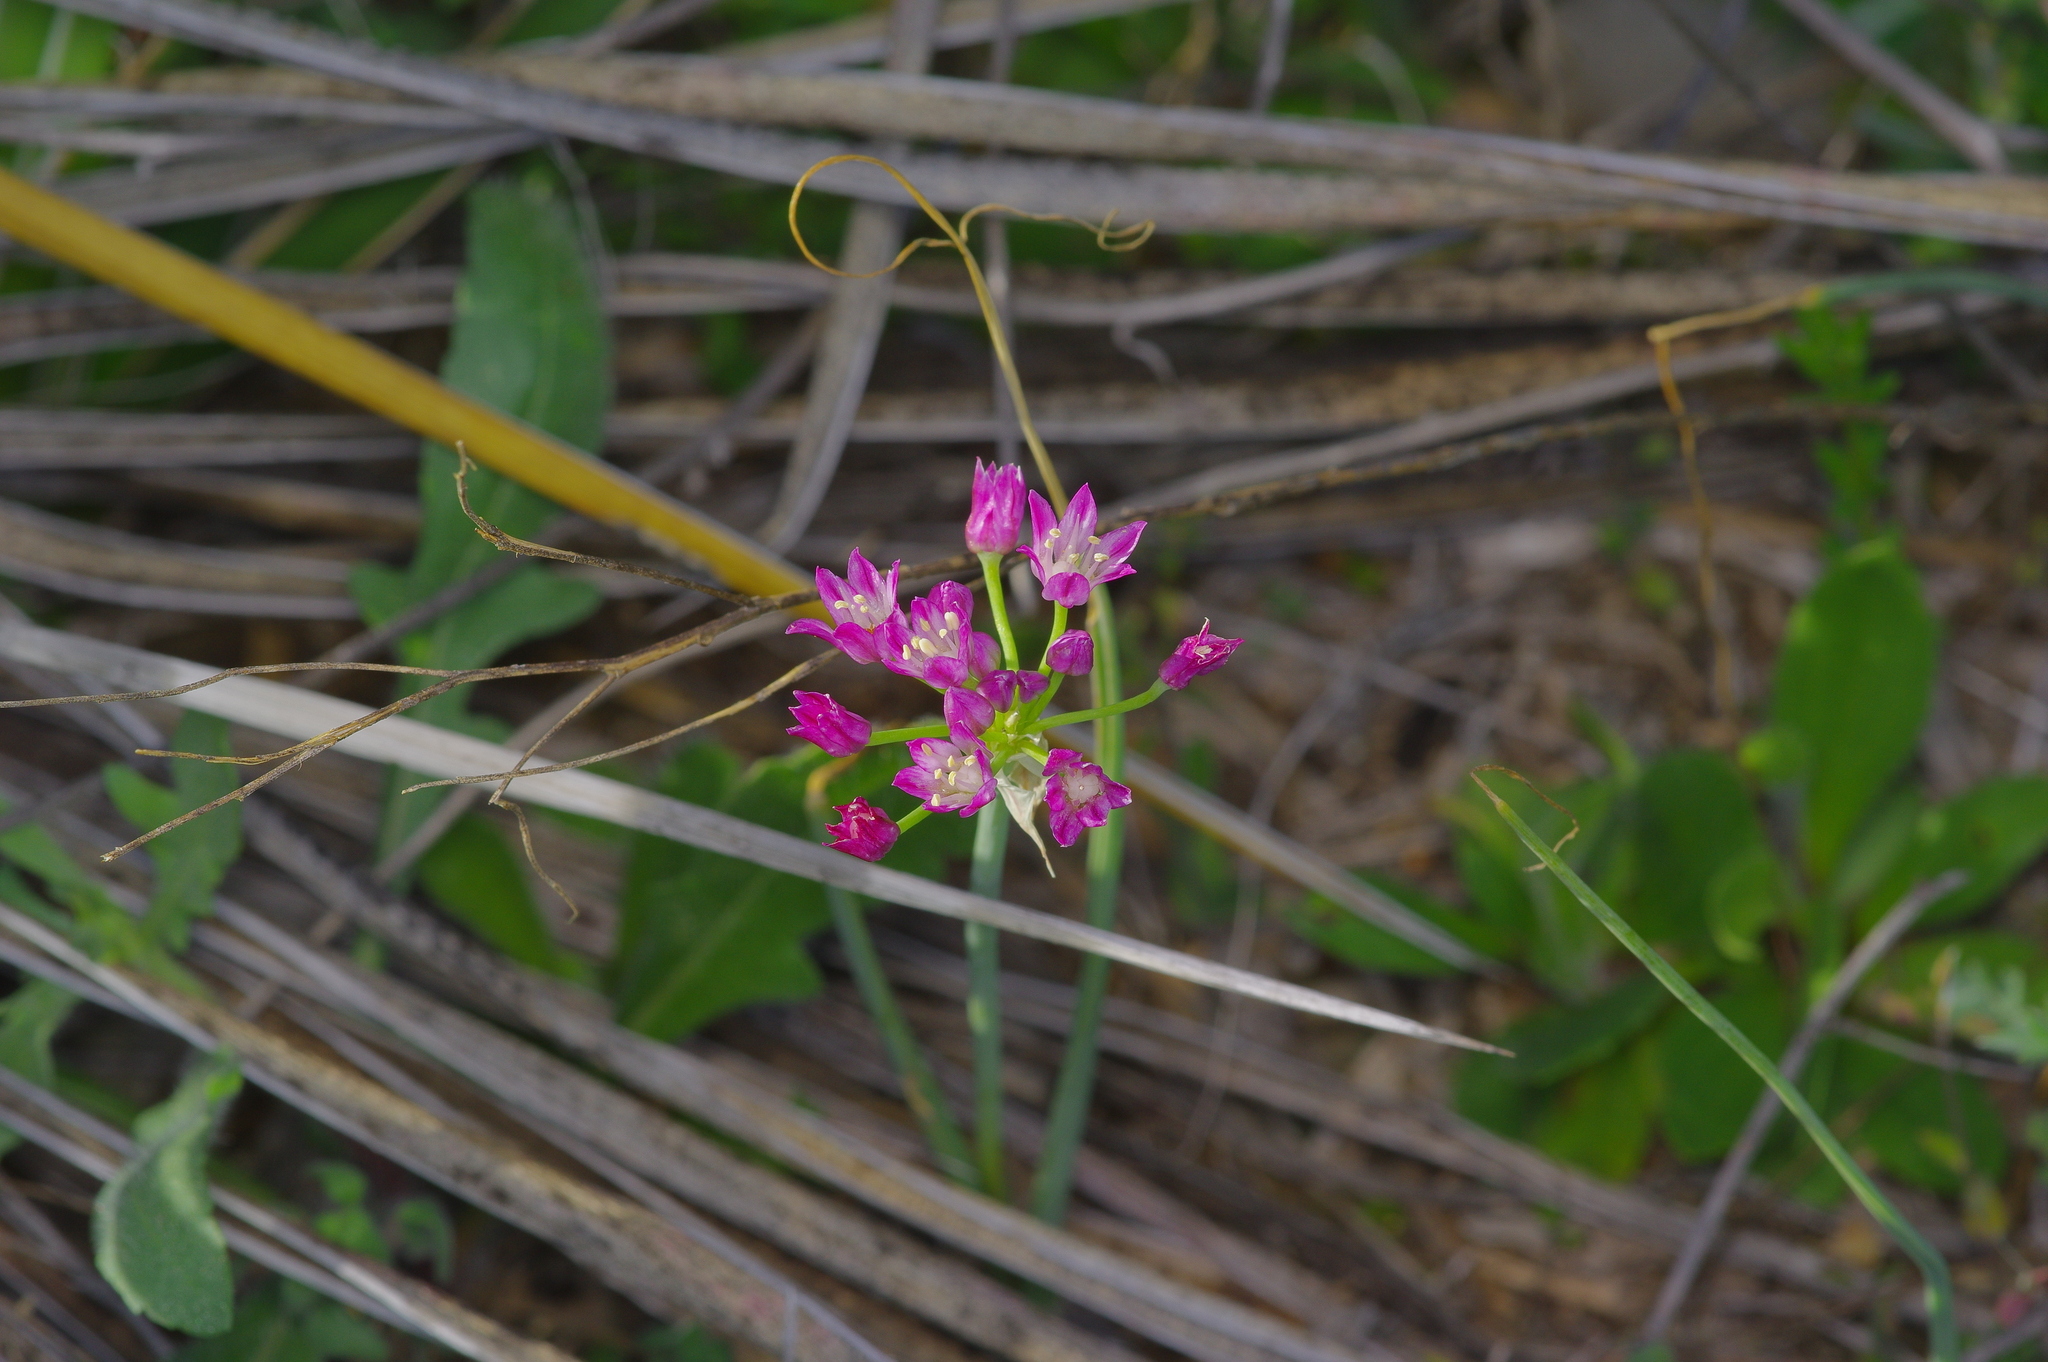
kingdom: Plantae
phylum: Tracheophyta
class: Liliopsida
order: Asparagales
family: Amaryllidaceae
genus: Allium
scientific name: Allium drummondii
